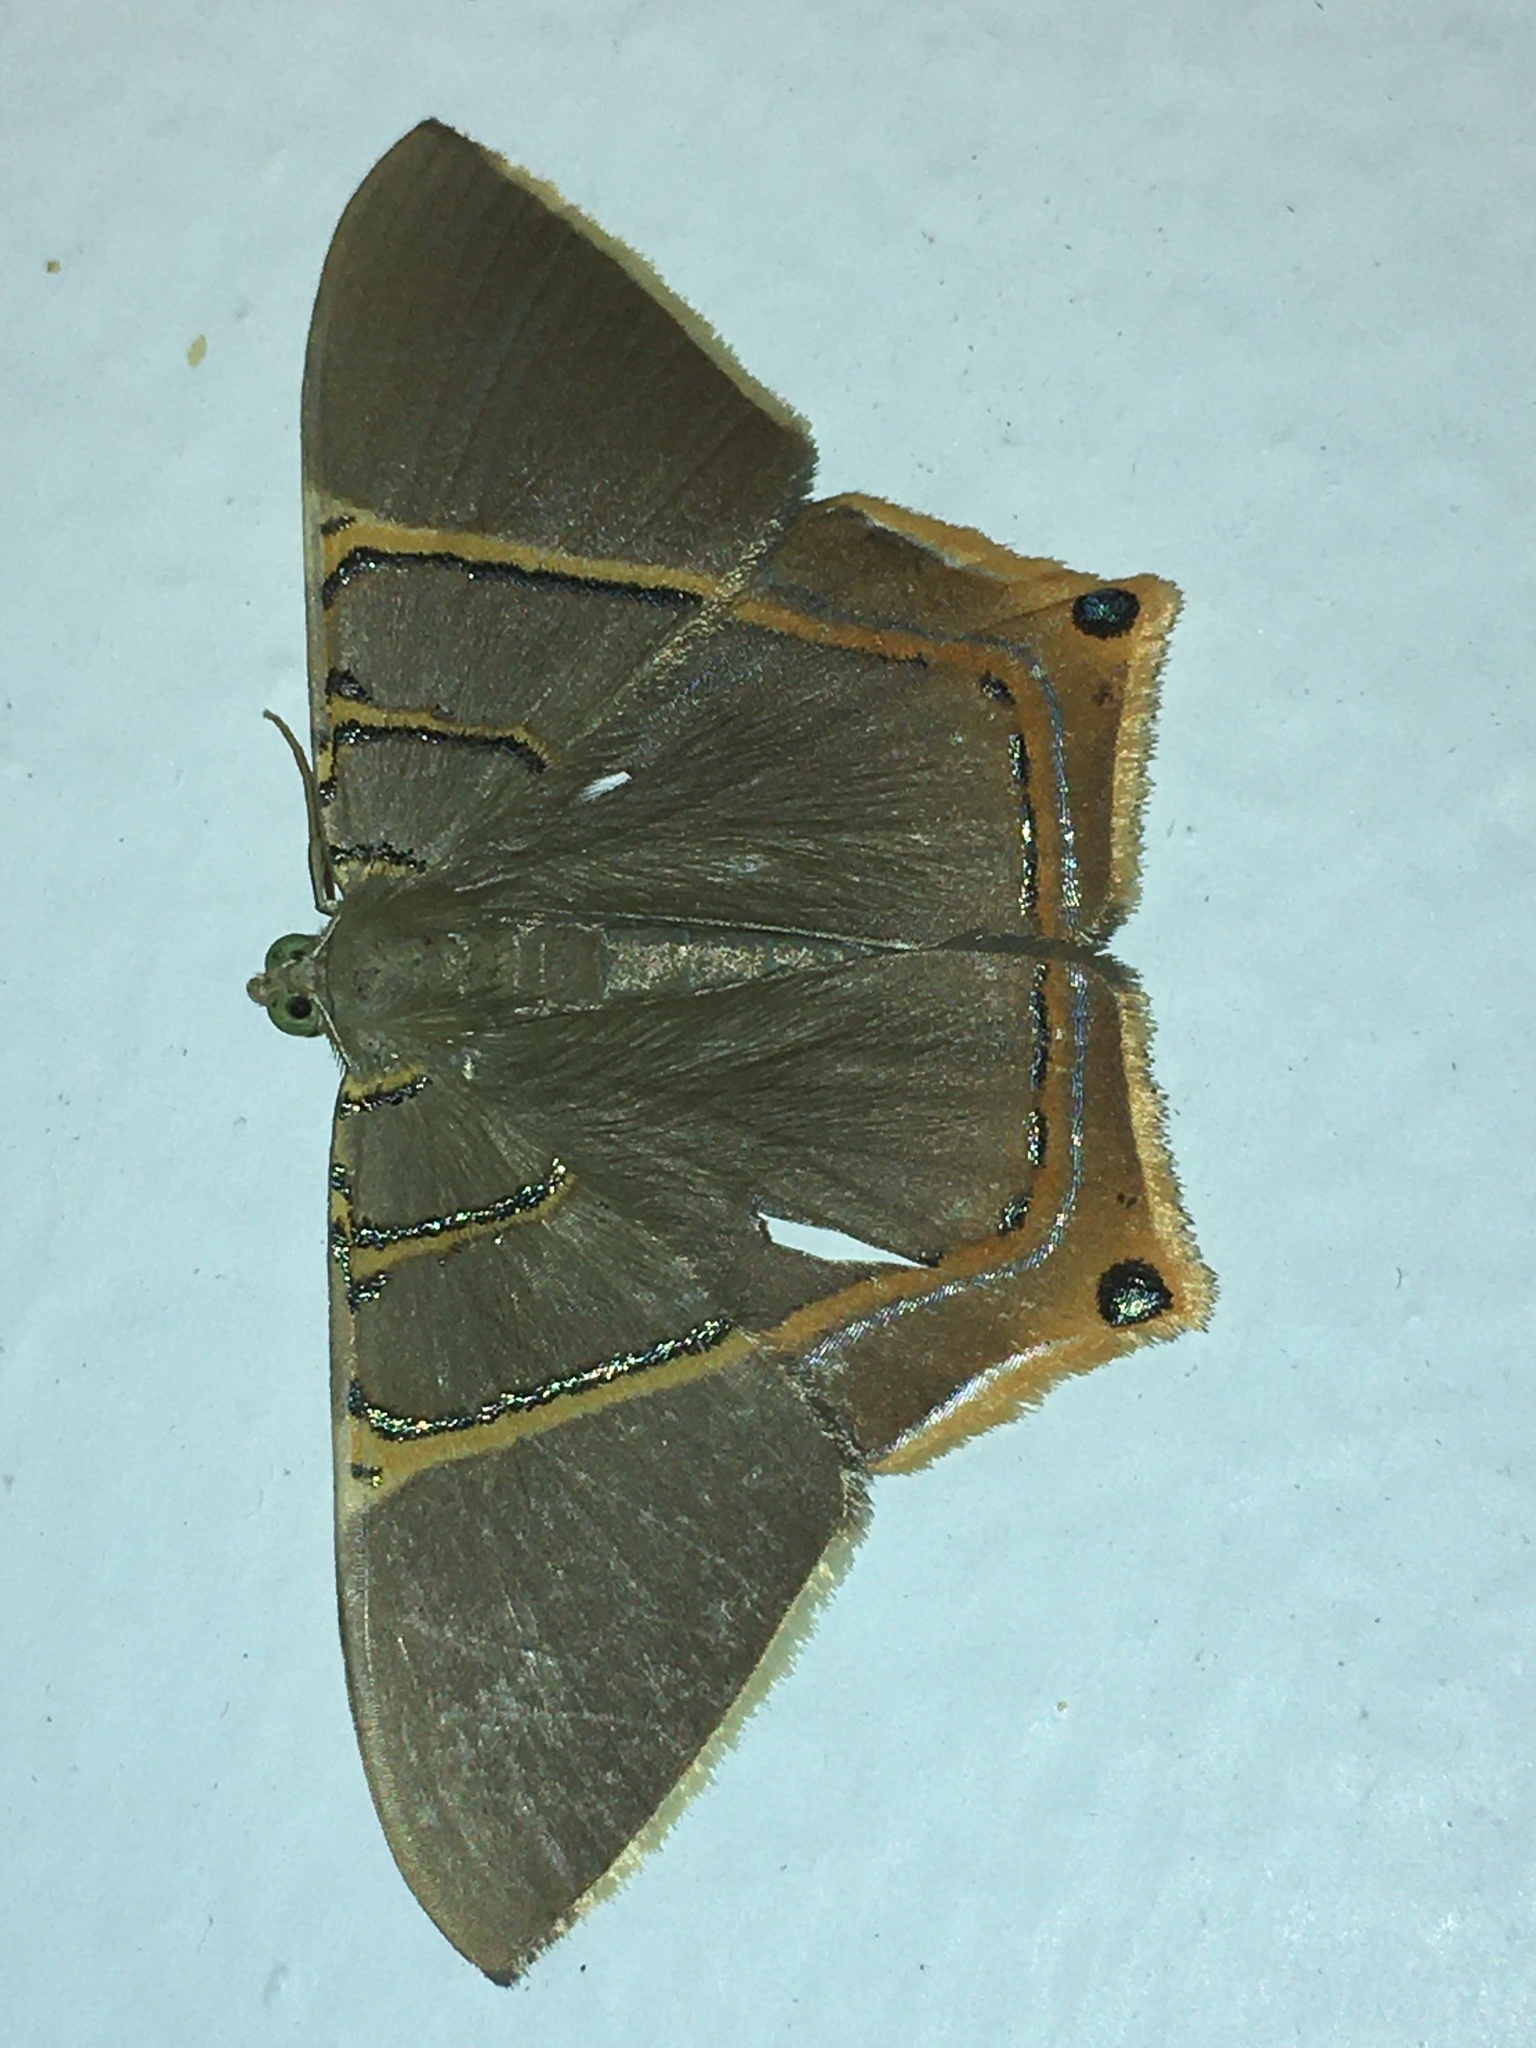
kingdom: Animalia
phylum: Arthropoda
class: Insecta
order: Lepidoptera
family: Geometridae
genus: Phrygionis
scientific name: Phrygionis polita
